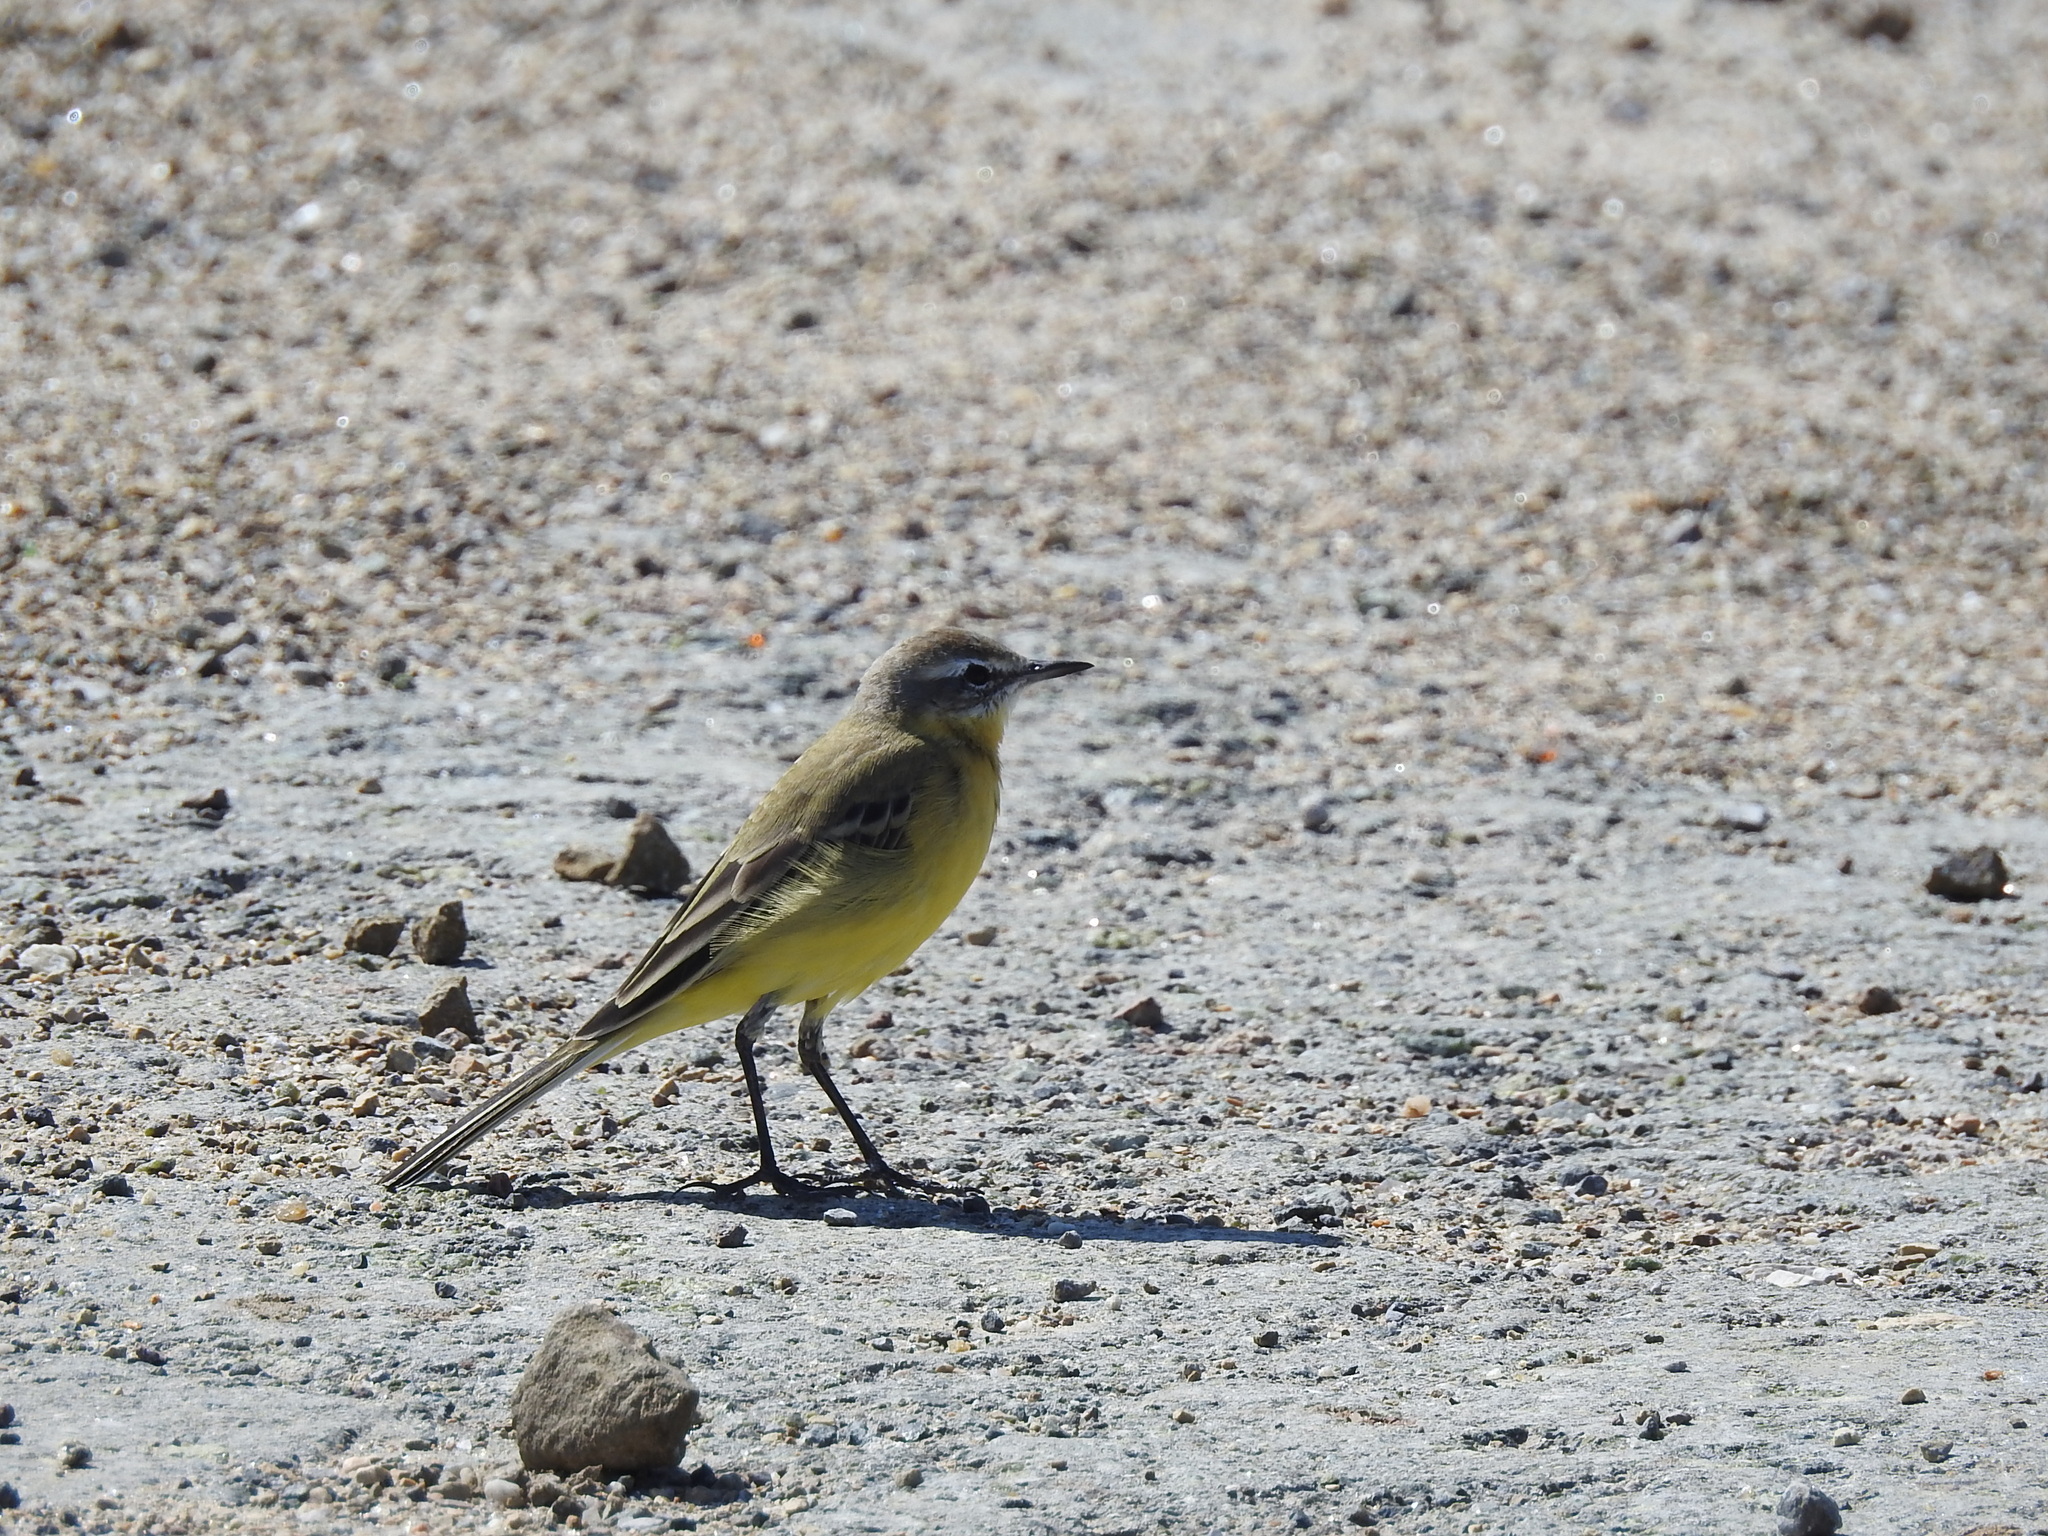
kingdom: Animalia
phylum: Chordata
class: Aves
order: Passeriformes
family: Motacillidae
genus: Motacilla
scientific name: Motacilla flava
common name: Western yellow wagtail
